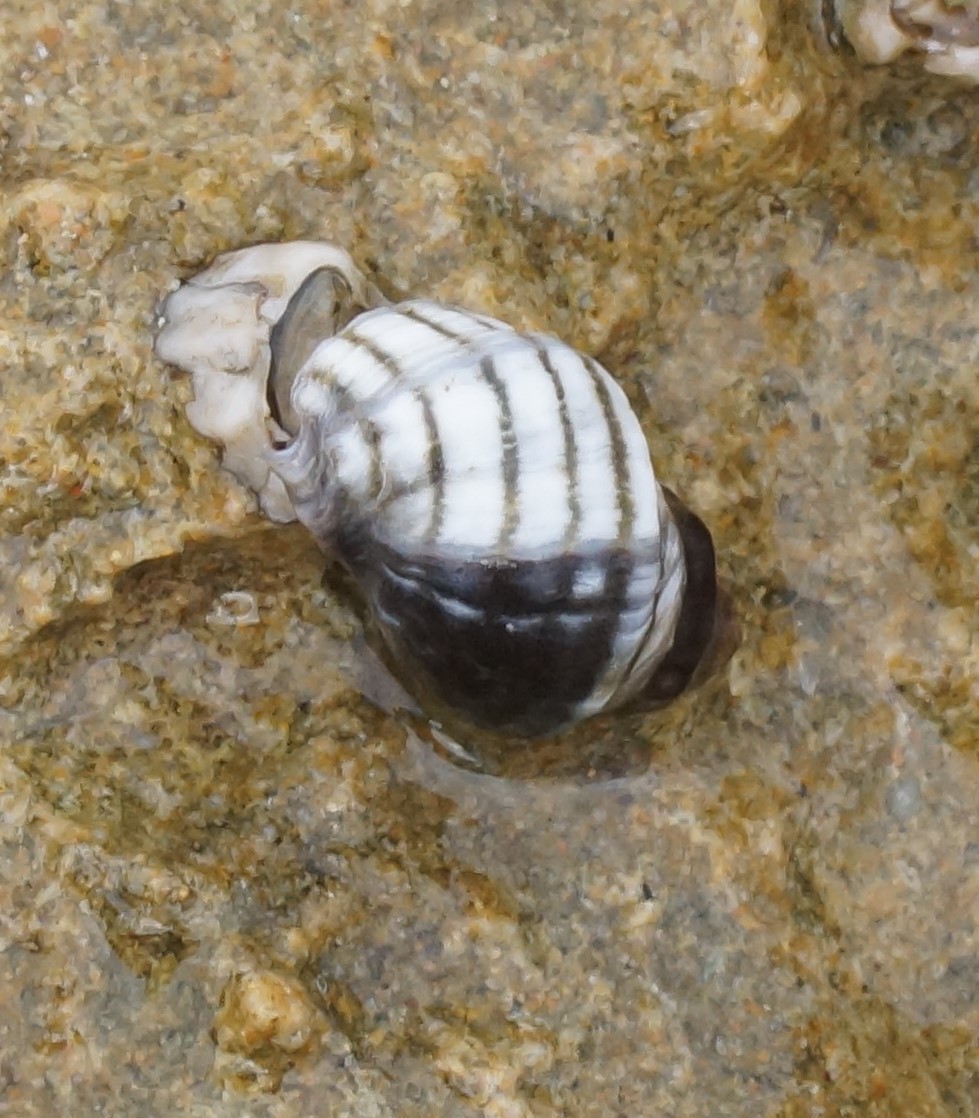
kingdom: Animalia
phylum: Mollusca
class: Gastropoda
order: Neogastropoda
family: Muricidae
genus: Bedeva
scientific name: Bedeva vinosa
